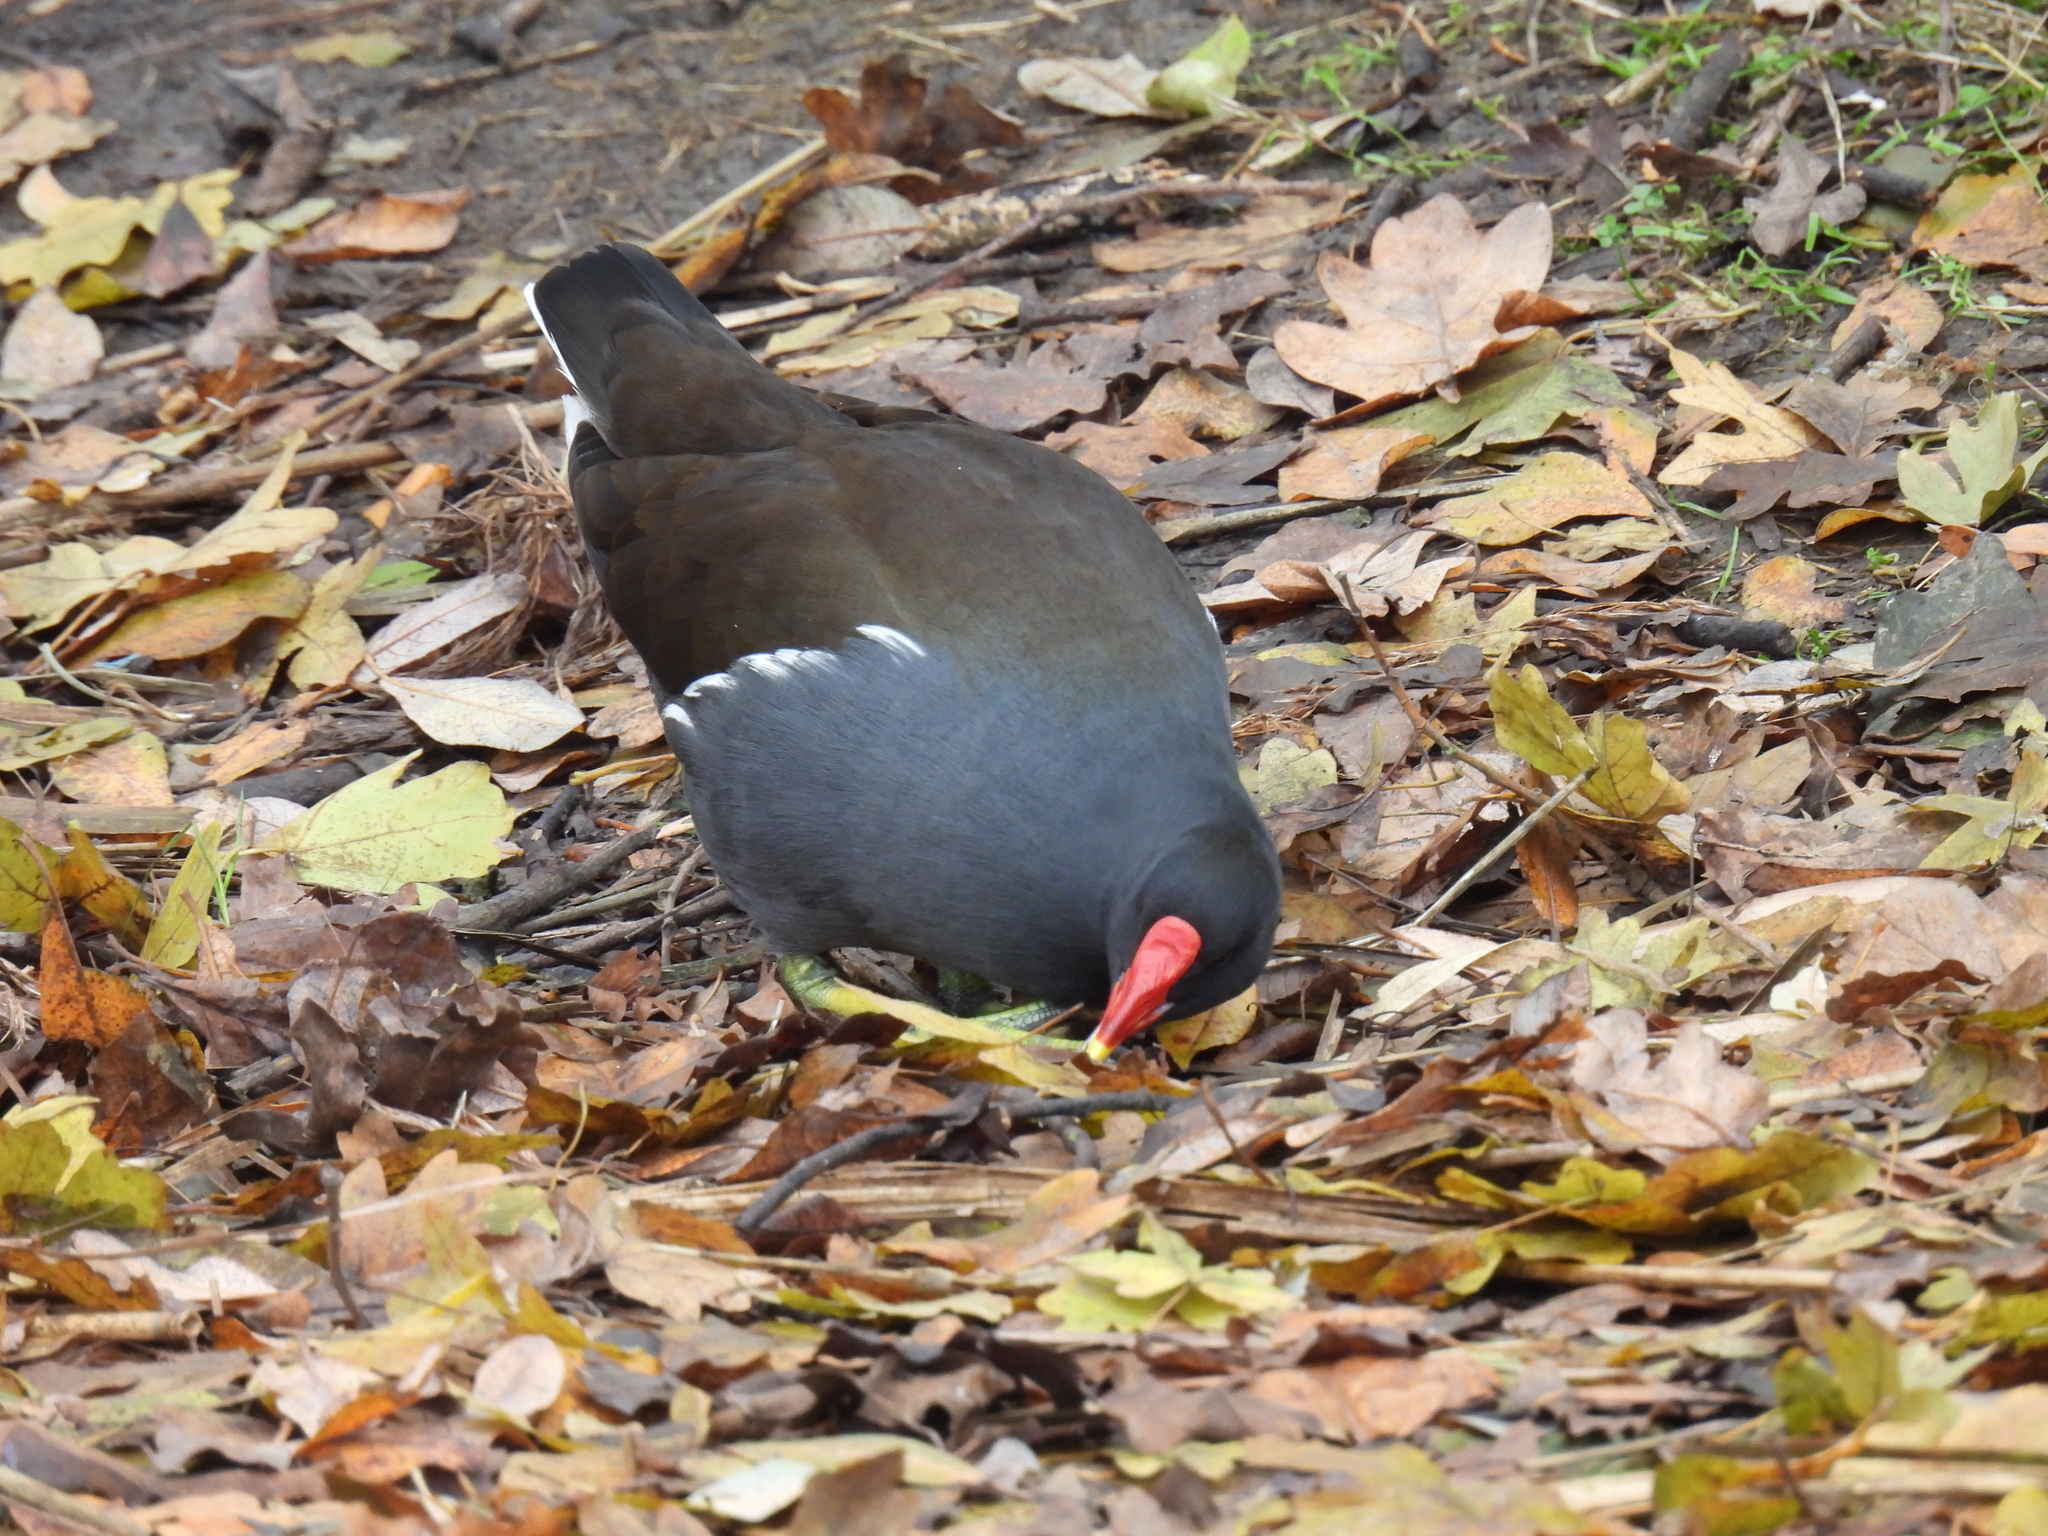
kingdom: Animalia
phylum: Chordata
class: Aves
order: Gruiformes
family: Rallidae
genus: Gallinula
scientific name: Gallinula chloropus
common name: Common moorhen
